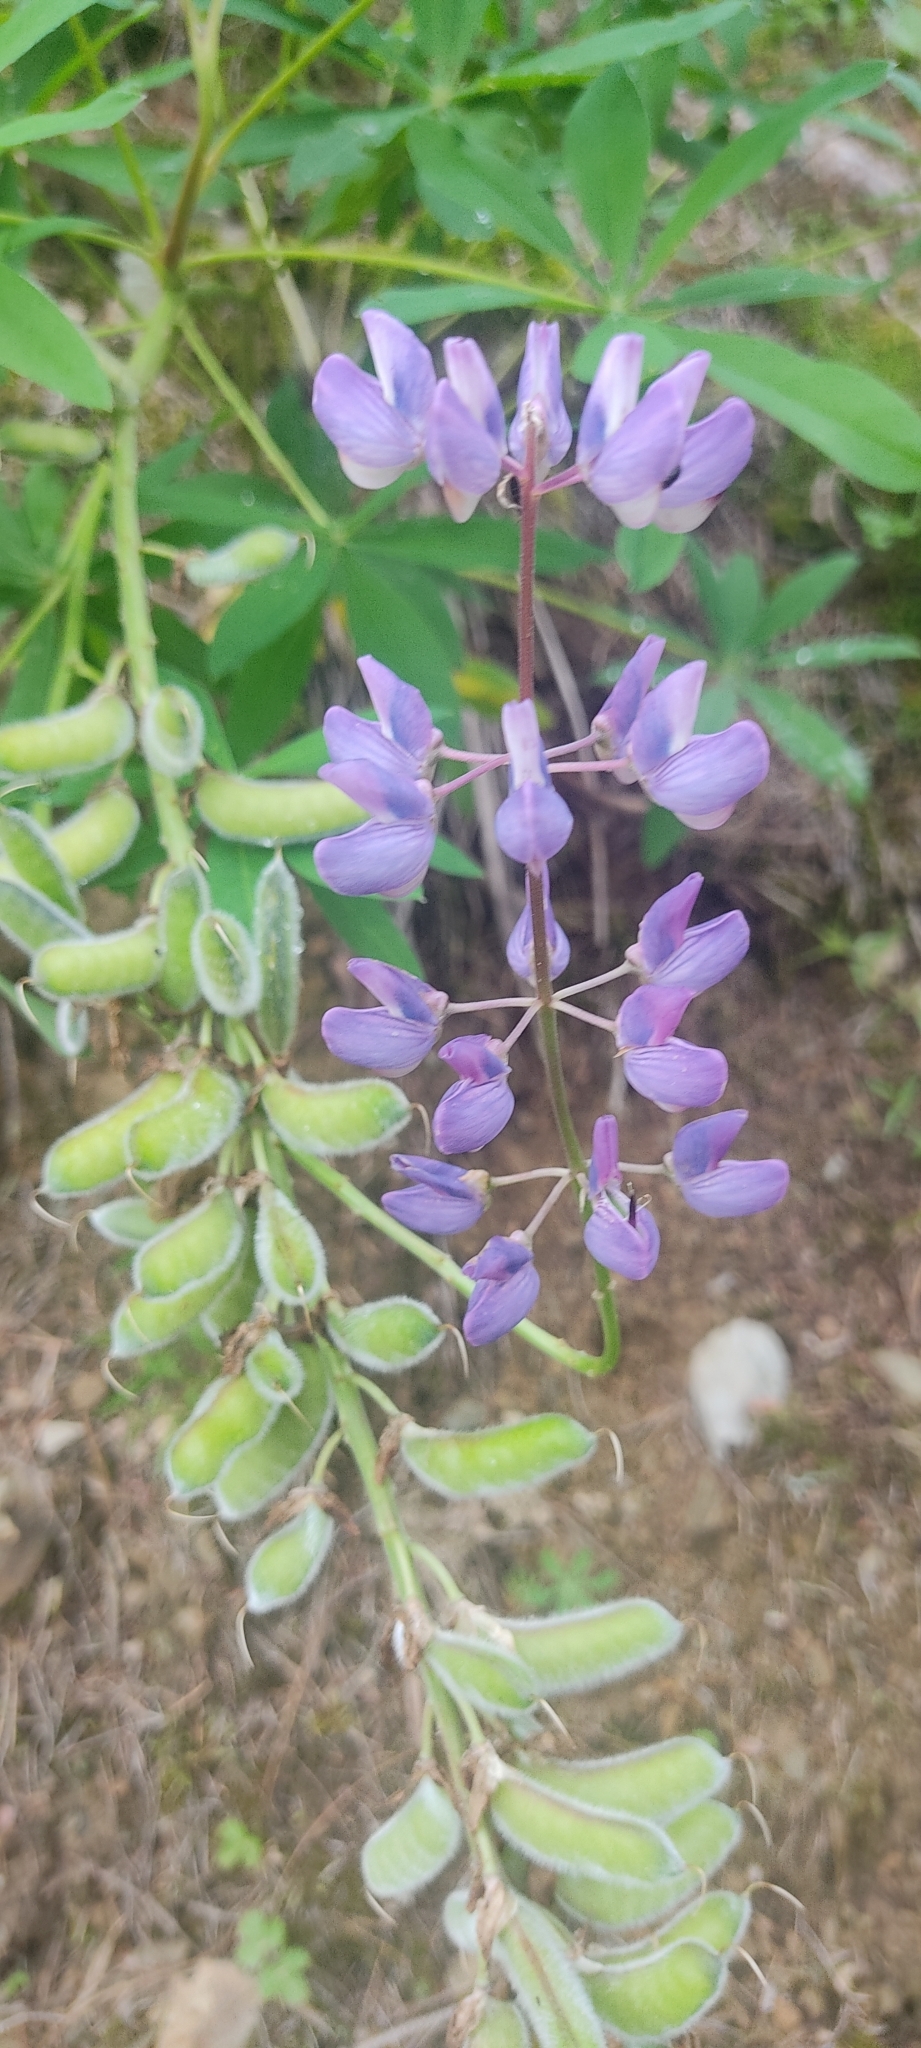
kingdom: Plantae
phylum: Tracheophyta
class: Magnoliopsida
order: Fabales
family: Fabaceae
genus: Lupinus
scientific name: Lupinus polyphyllus
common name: Garden lupin
